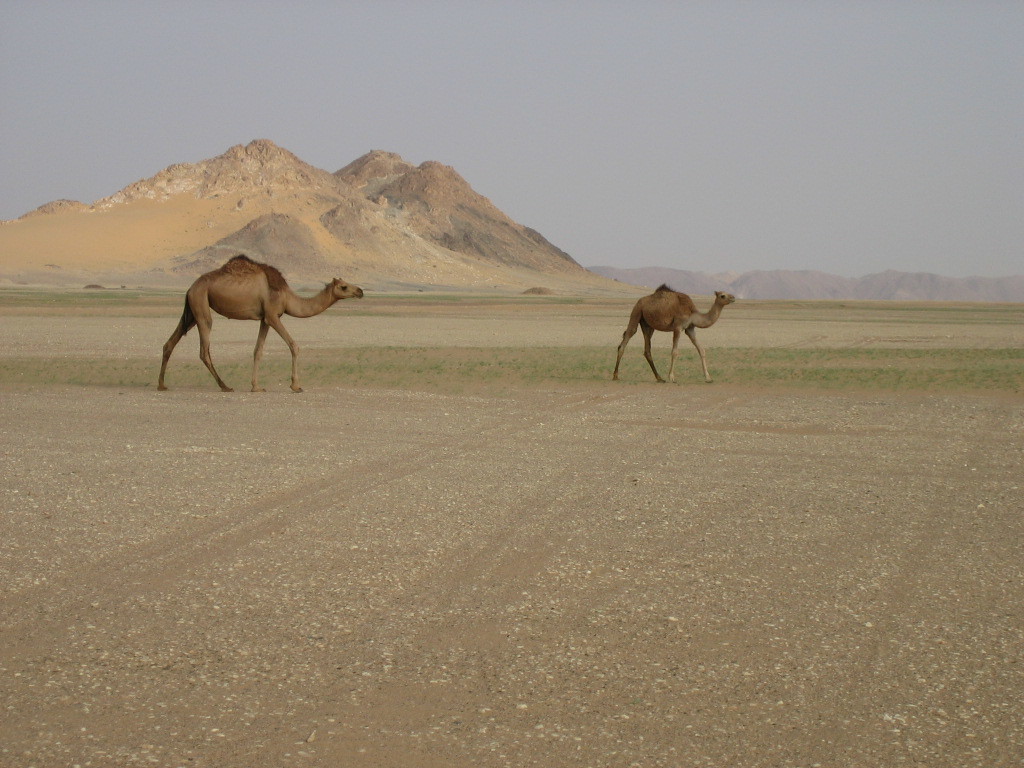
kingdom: Animalia
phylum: Chordata
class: Mammalia
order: Artiodactyla
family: Camelidae
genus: Camelus
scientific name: Camelus dromedarius
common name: One-humped camel
